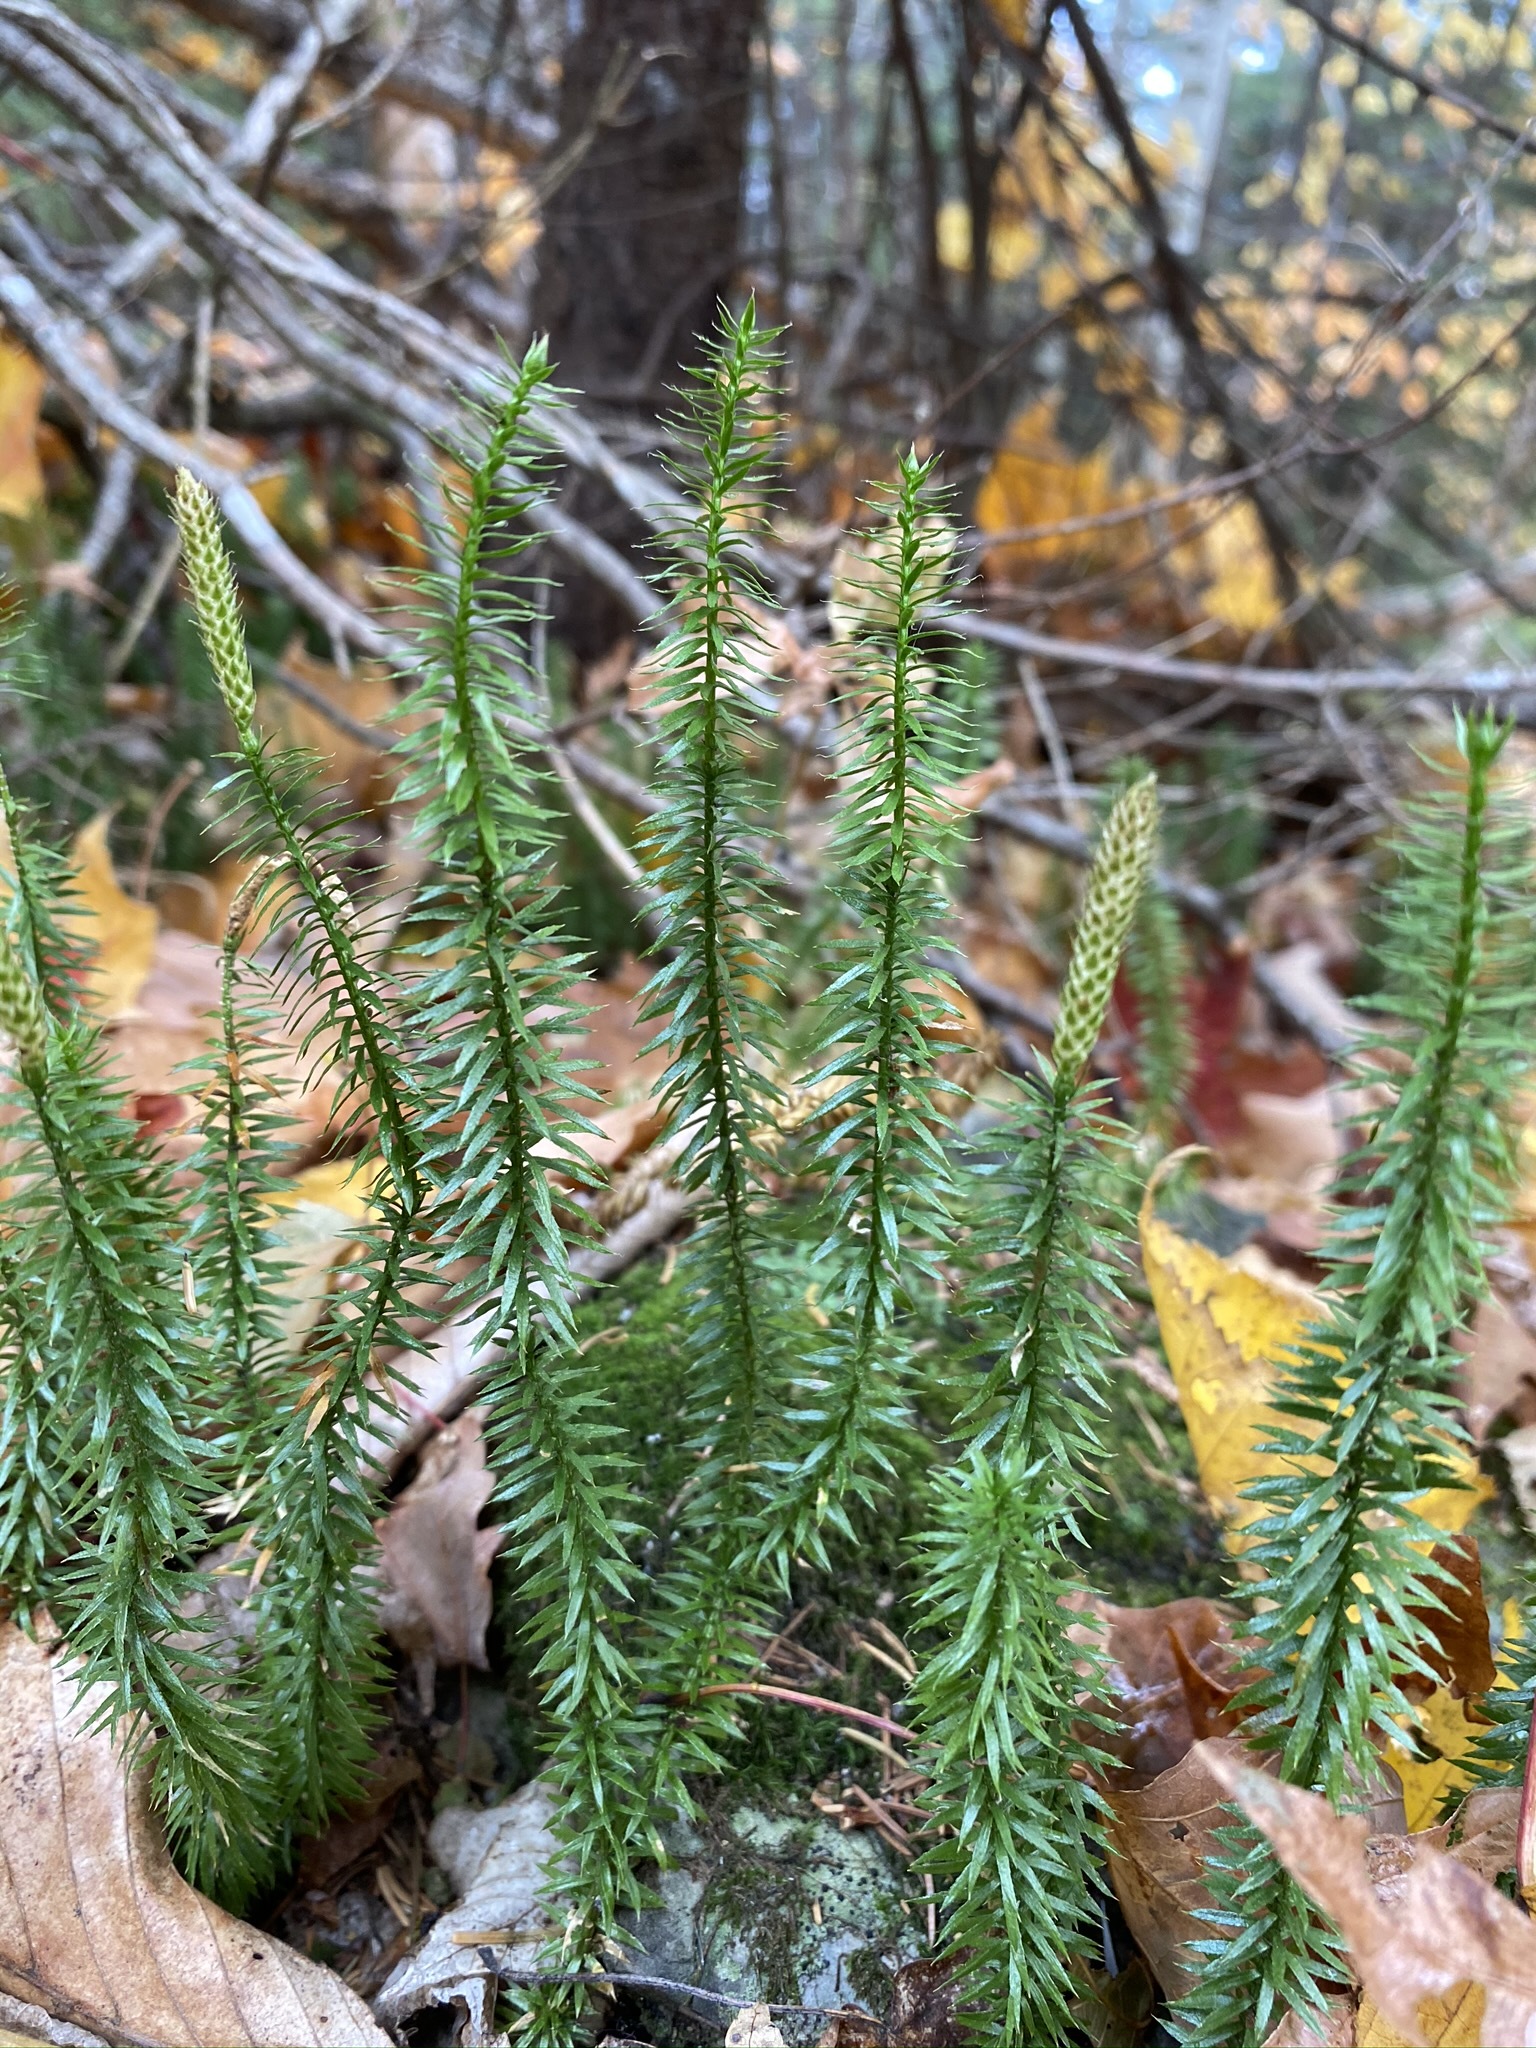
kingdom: Plantae
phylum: Tracheophyta
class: Lycopodiopsida
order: Lycopodiales
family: Lycopodiaceae
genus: Spinulum
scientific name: Spinulum annotinum
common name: Interrupted club-moss
